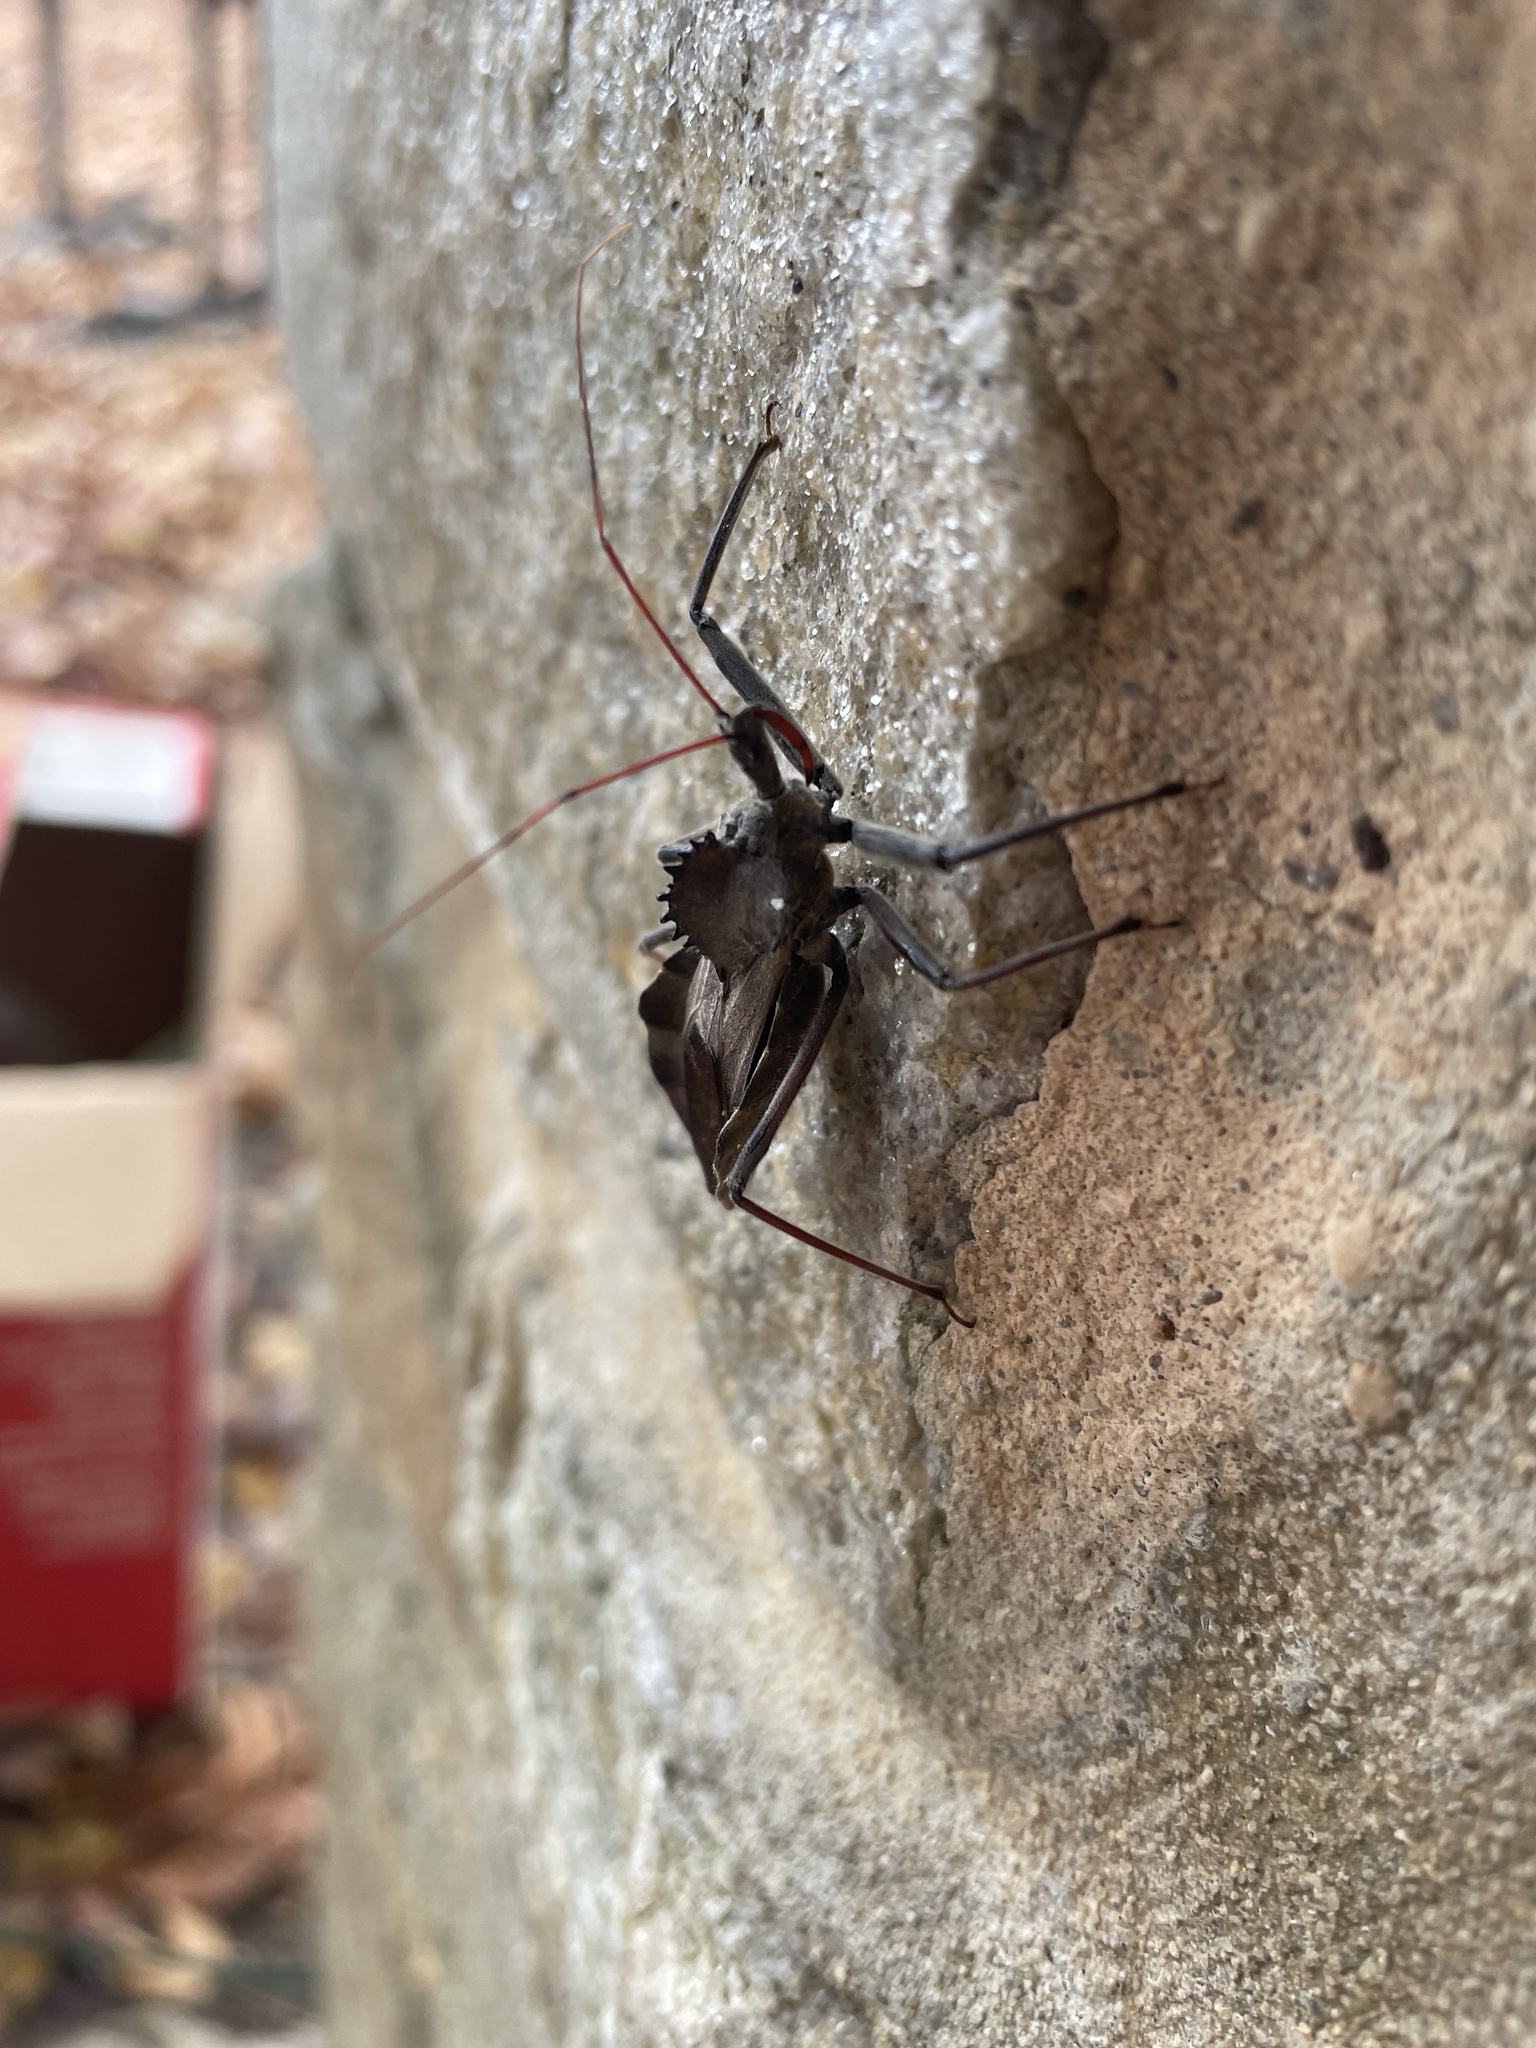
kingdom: Animalia
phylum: Arthropoda
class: Insecta
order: Hemiptera
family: Reduviidae
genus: Arilus
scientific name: Arilus cristatus
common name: North american wheel bug
